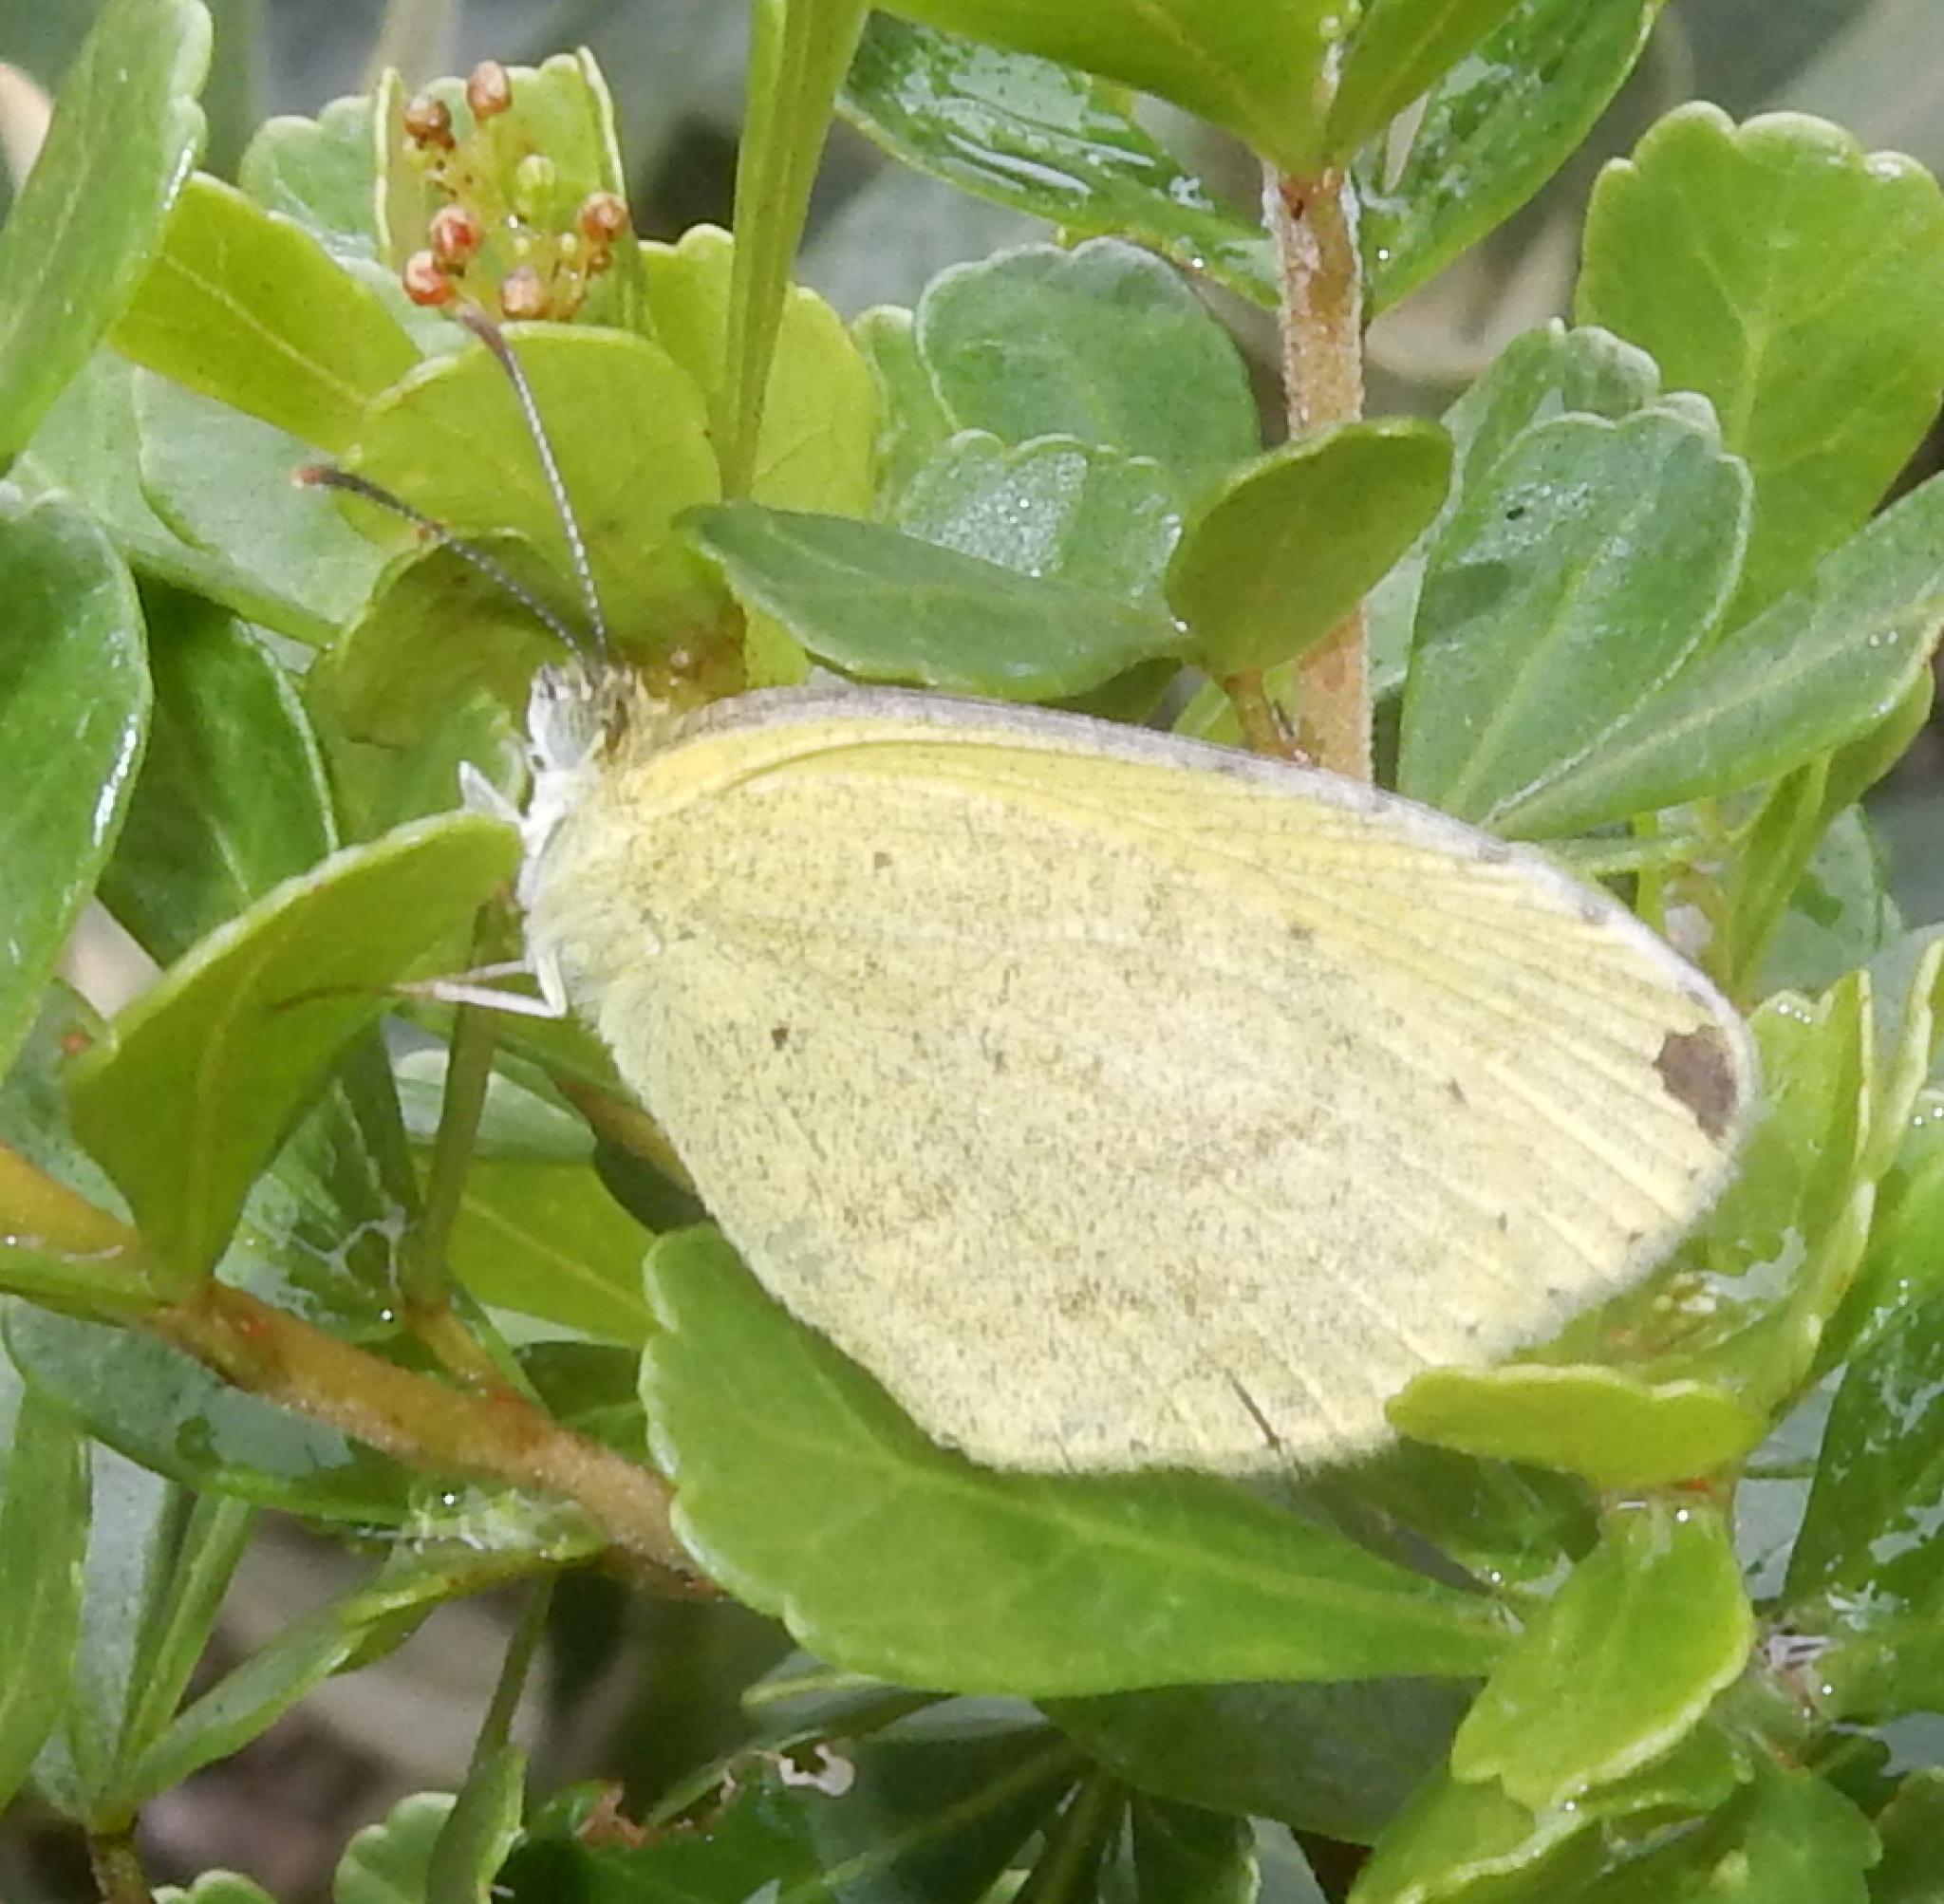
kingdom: Animalia
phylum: Arthropoda
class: Insecta
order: Lepidoptera
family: Pieridae
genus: Eurema
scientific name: Eurema brigitta
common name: Small grass yellow
